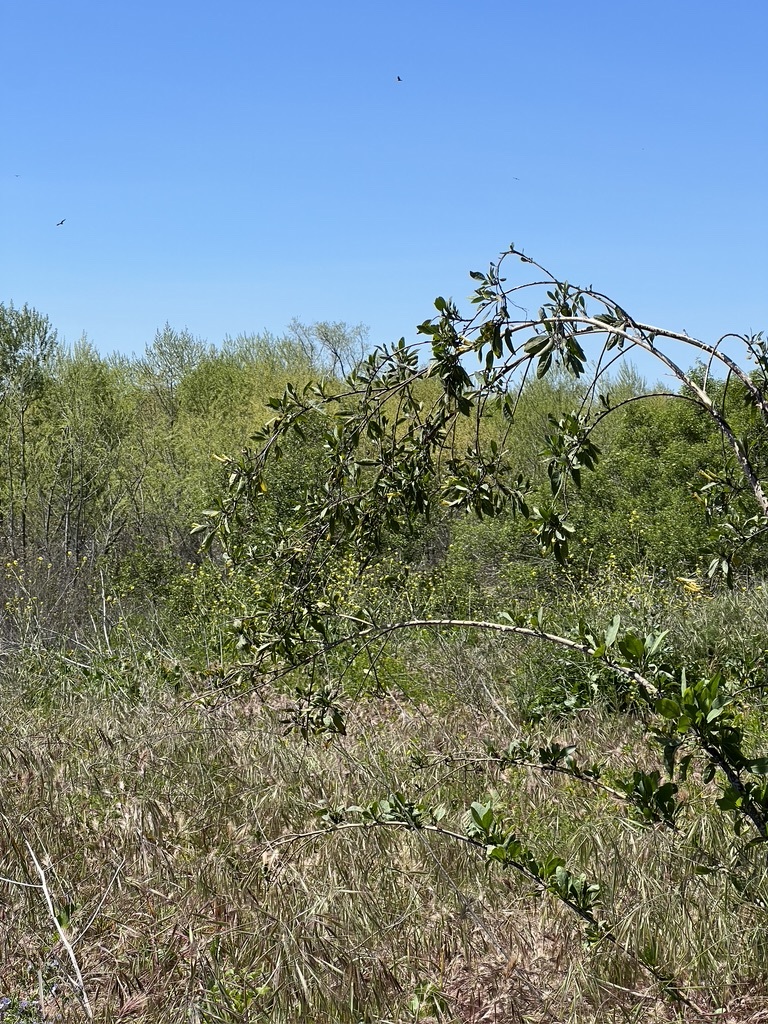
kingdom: Plantae
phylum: Tracheophyta
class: Magnoliopsida
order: Solanales
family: Solanaceae
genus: Nicotiana
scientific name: Nicotiana glauca
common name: Tree tobacco
